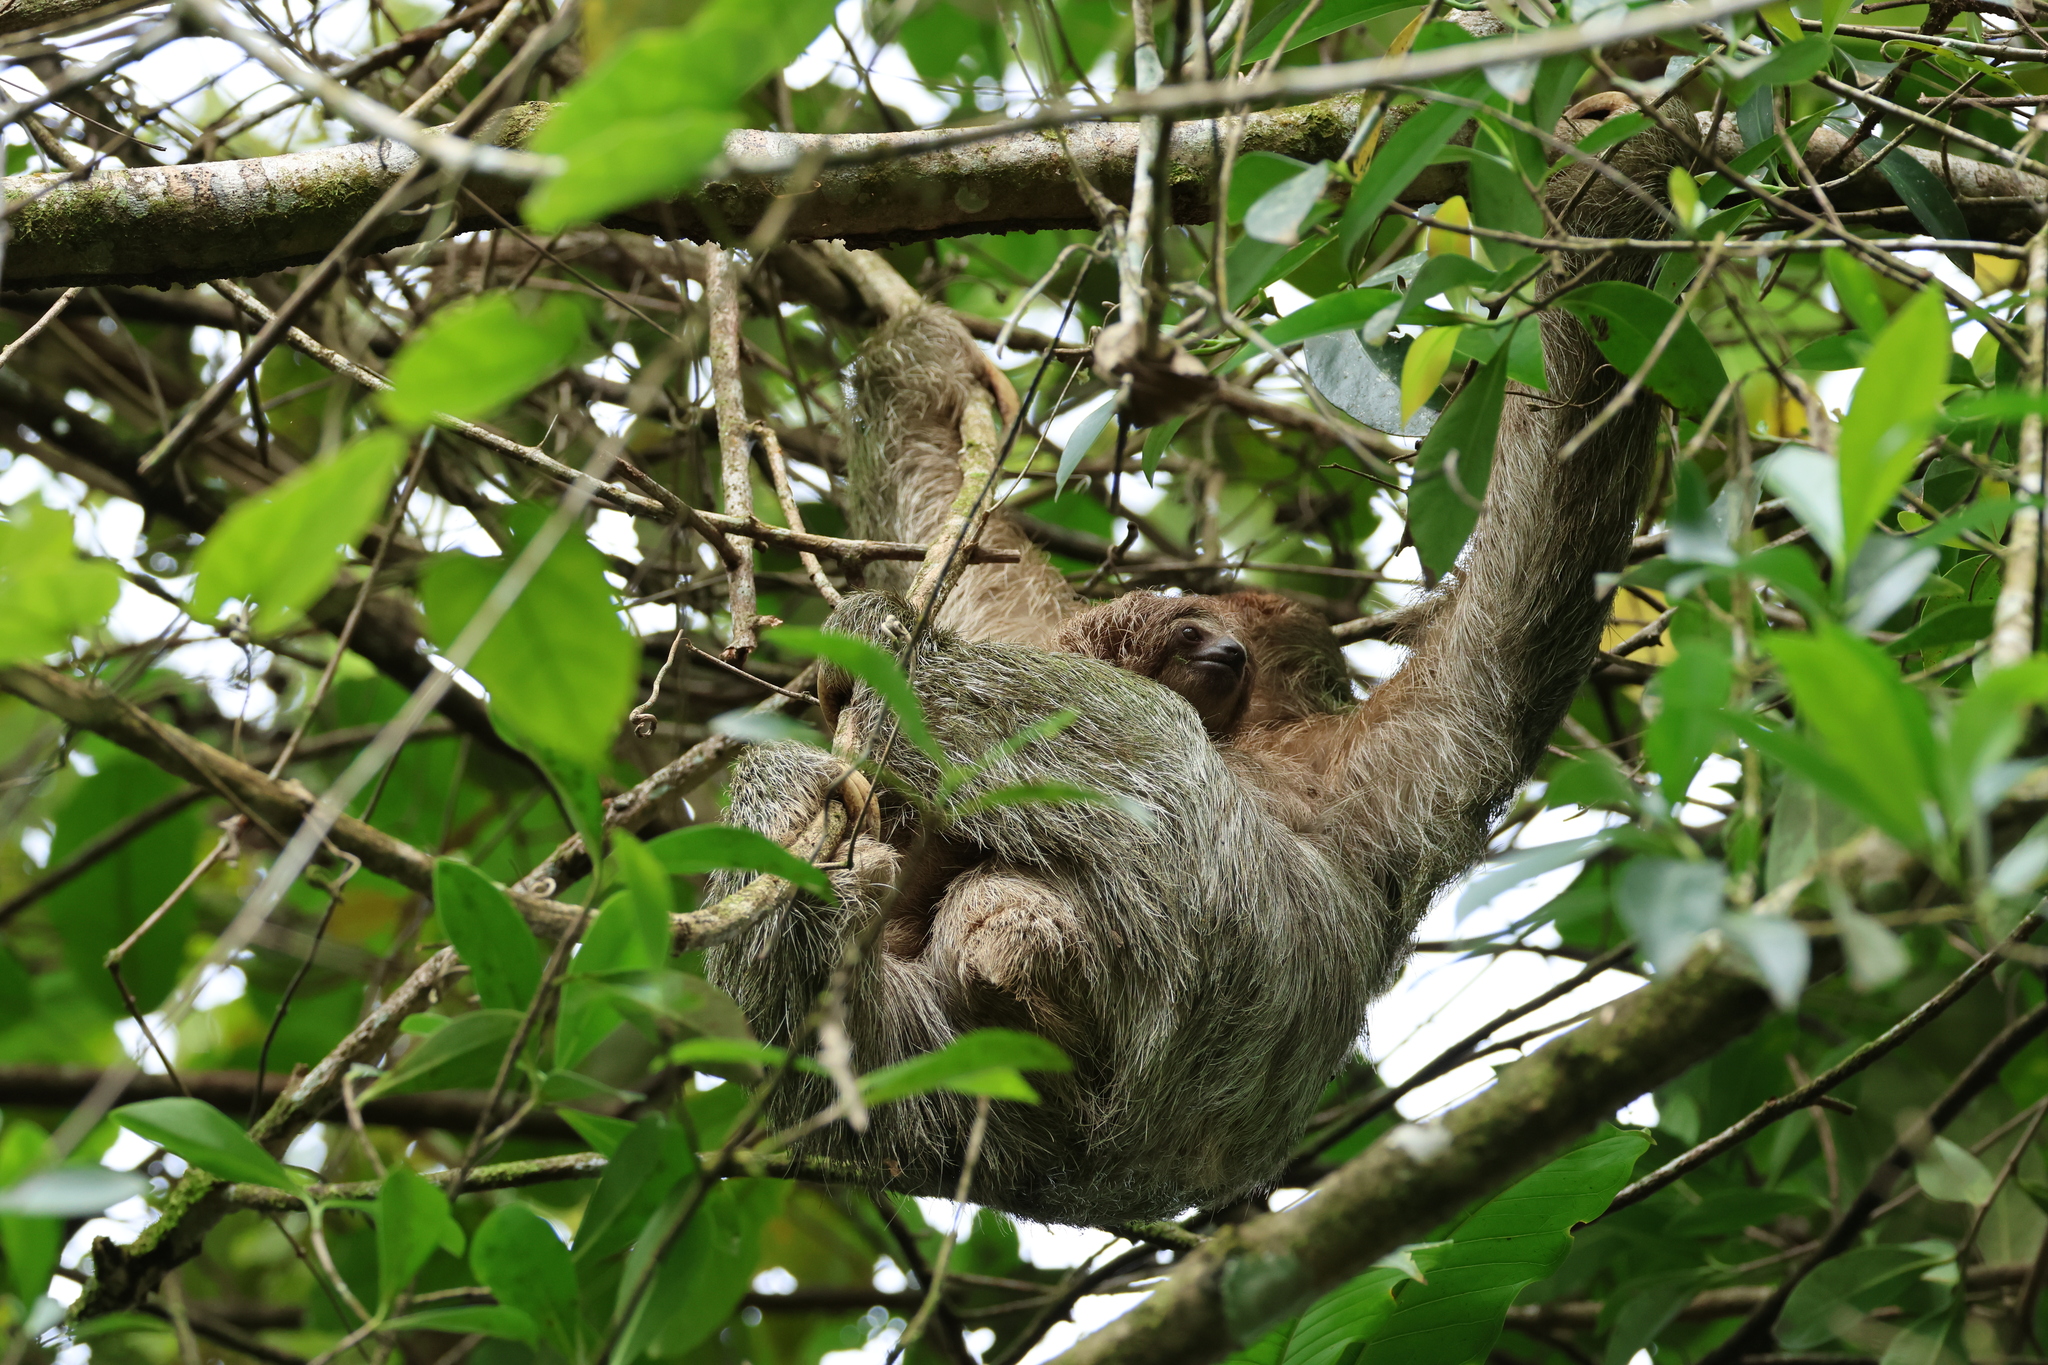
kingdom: Animalia
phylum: Chordata
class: Mammalia
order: Pilosa
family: Bradypodidae
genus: Bradypus
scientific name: Bradypus variegatus
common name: Brown-throated three-toed sloth
